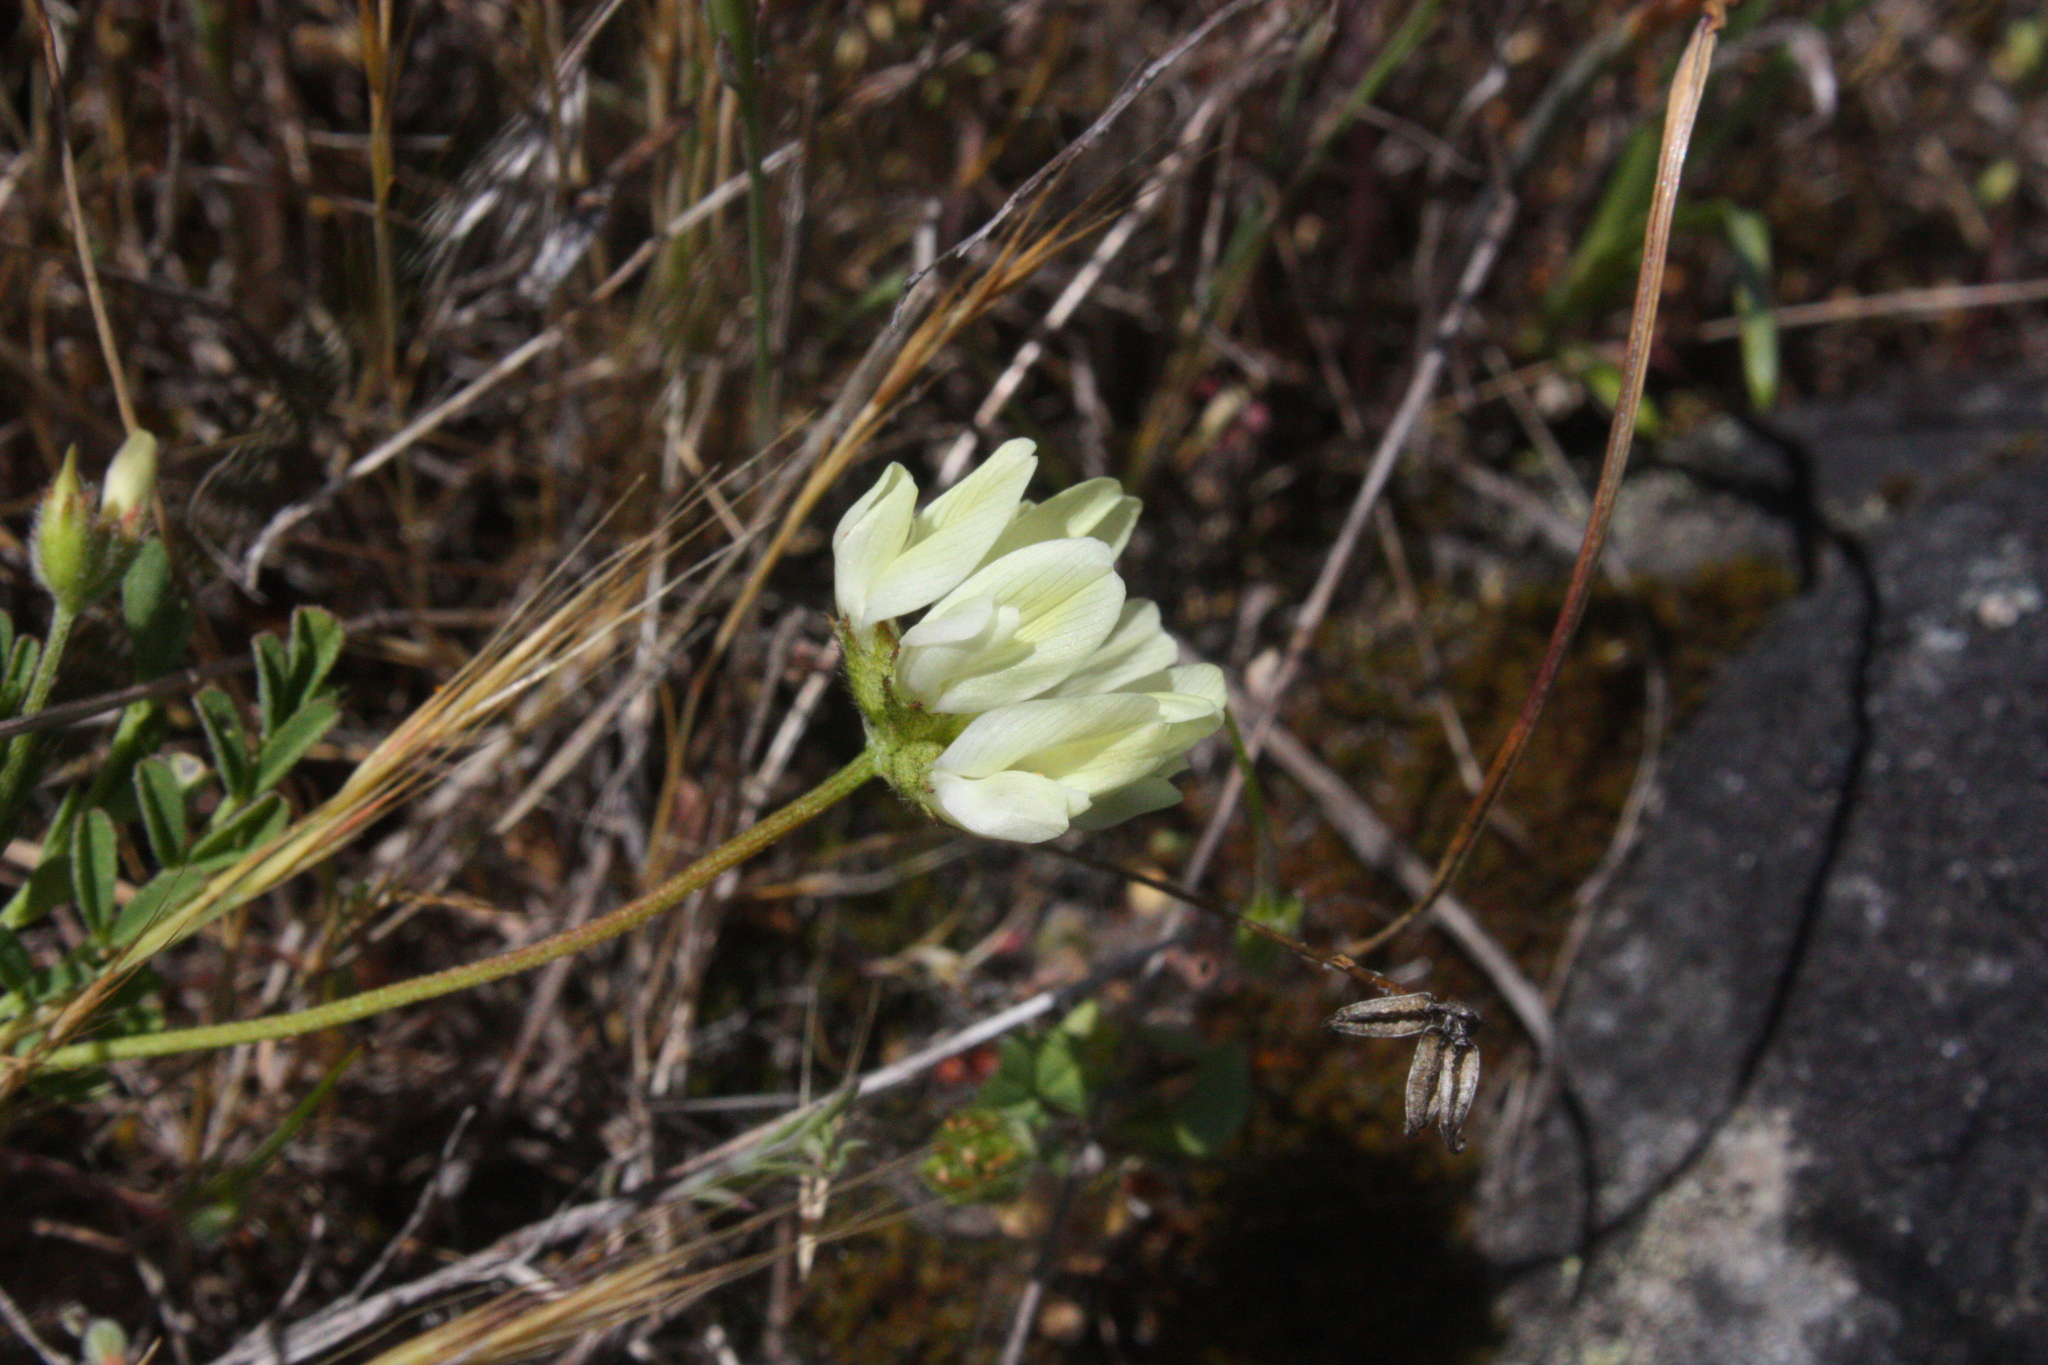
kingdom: Plantae
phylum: Tracheophyta
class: Magnoliopsida
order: Fabales
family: Fabaceae
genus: Astragalus
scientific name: Astragalus breweri
